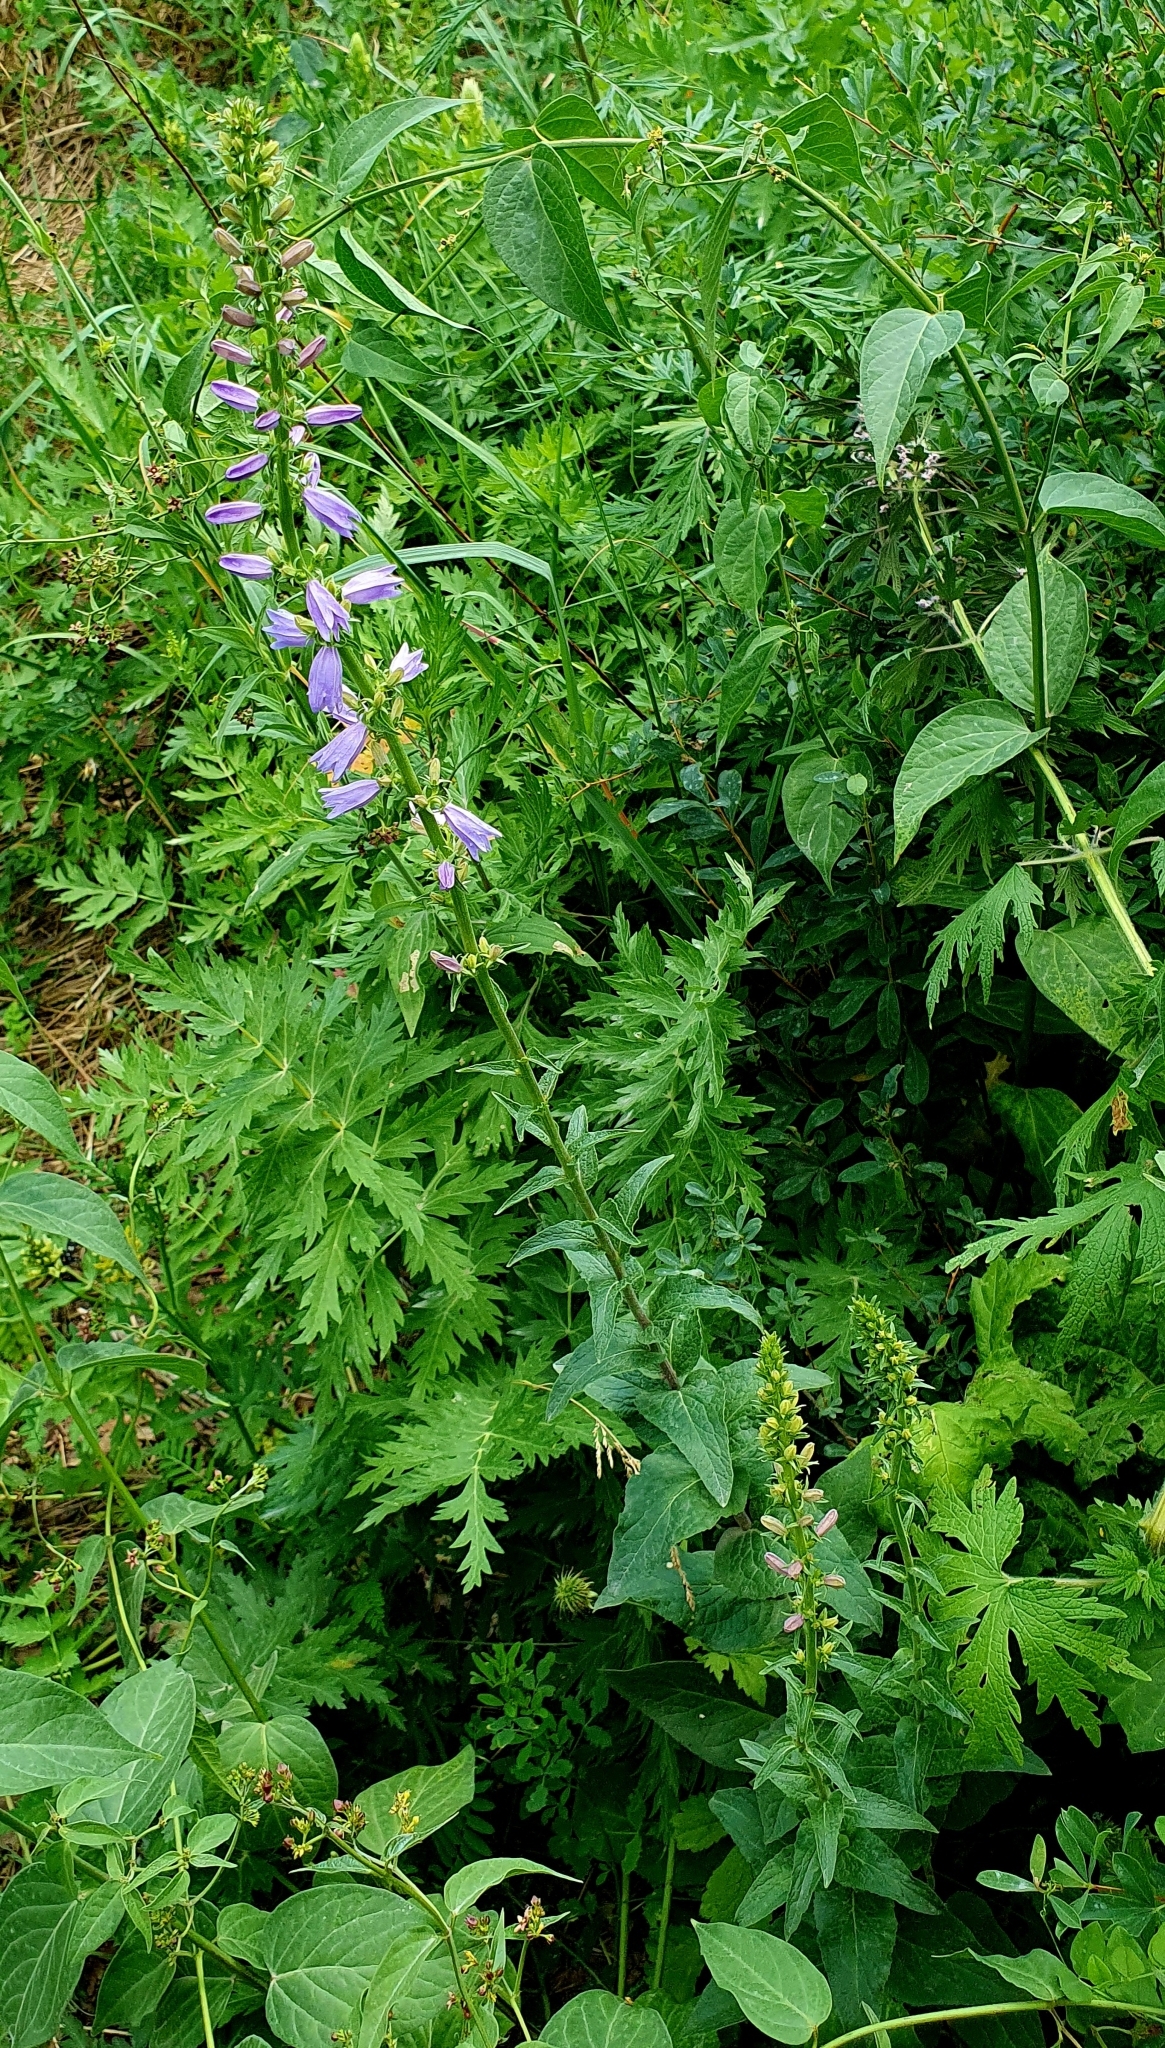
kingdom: Plantae
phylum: Tracheophyta
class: Magnoliopsida
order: Asterales
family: Campanulaceae
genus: Campanula
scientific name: Campanula bononiensis
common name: Pale bellflower
